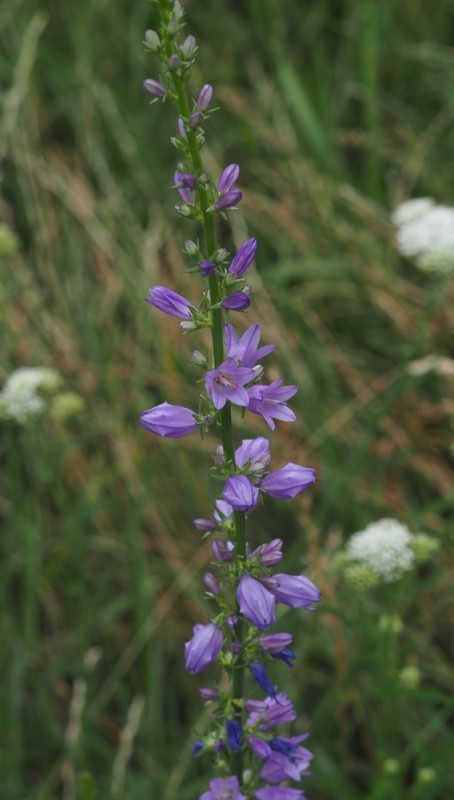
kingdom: Plantae
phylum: Tracheophyta
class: Magnoliopsida
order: Asterales
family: Campanulaceae
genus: Campanula
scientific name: Campanula bononiensis
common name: Pale bellflower
